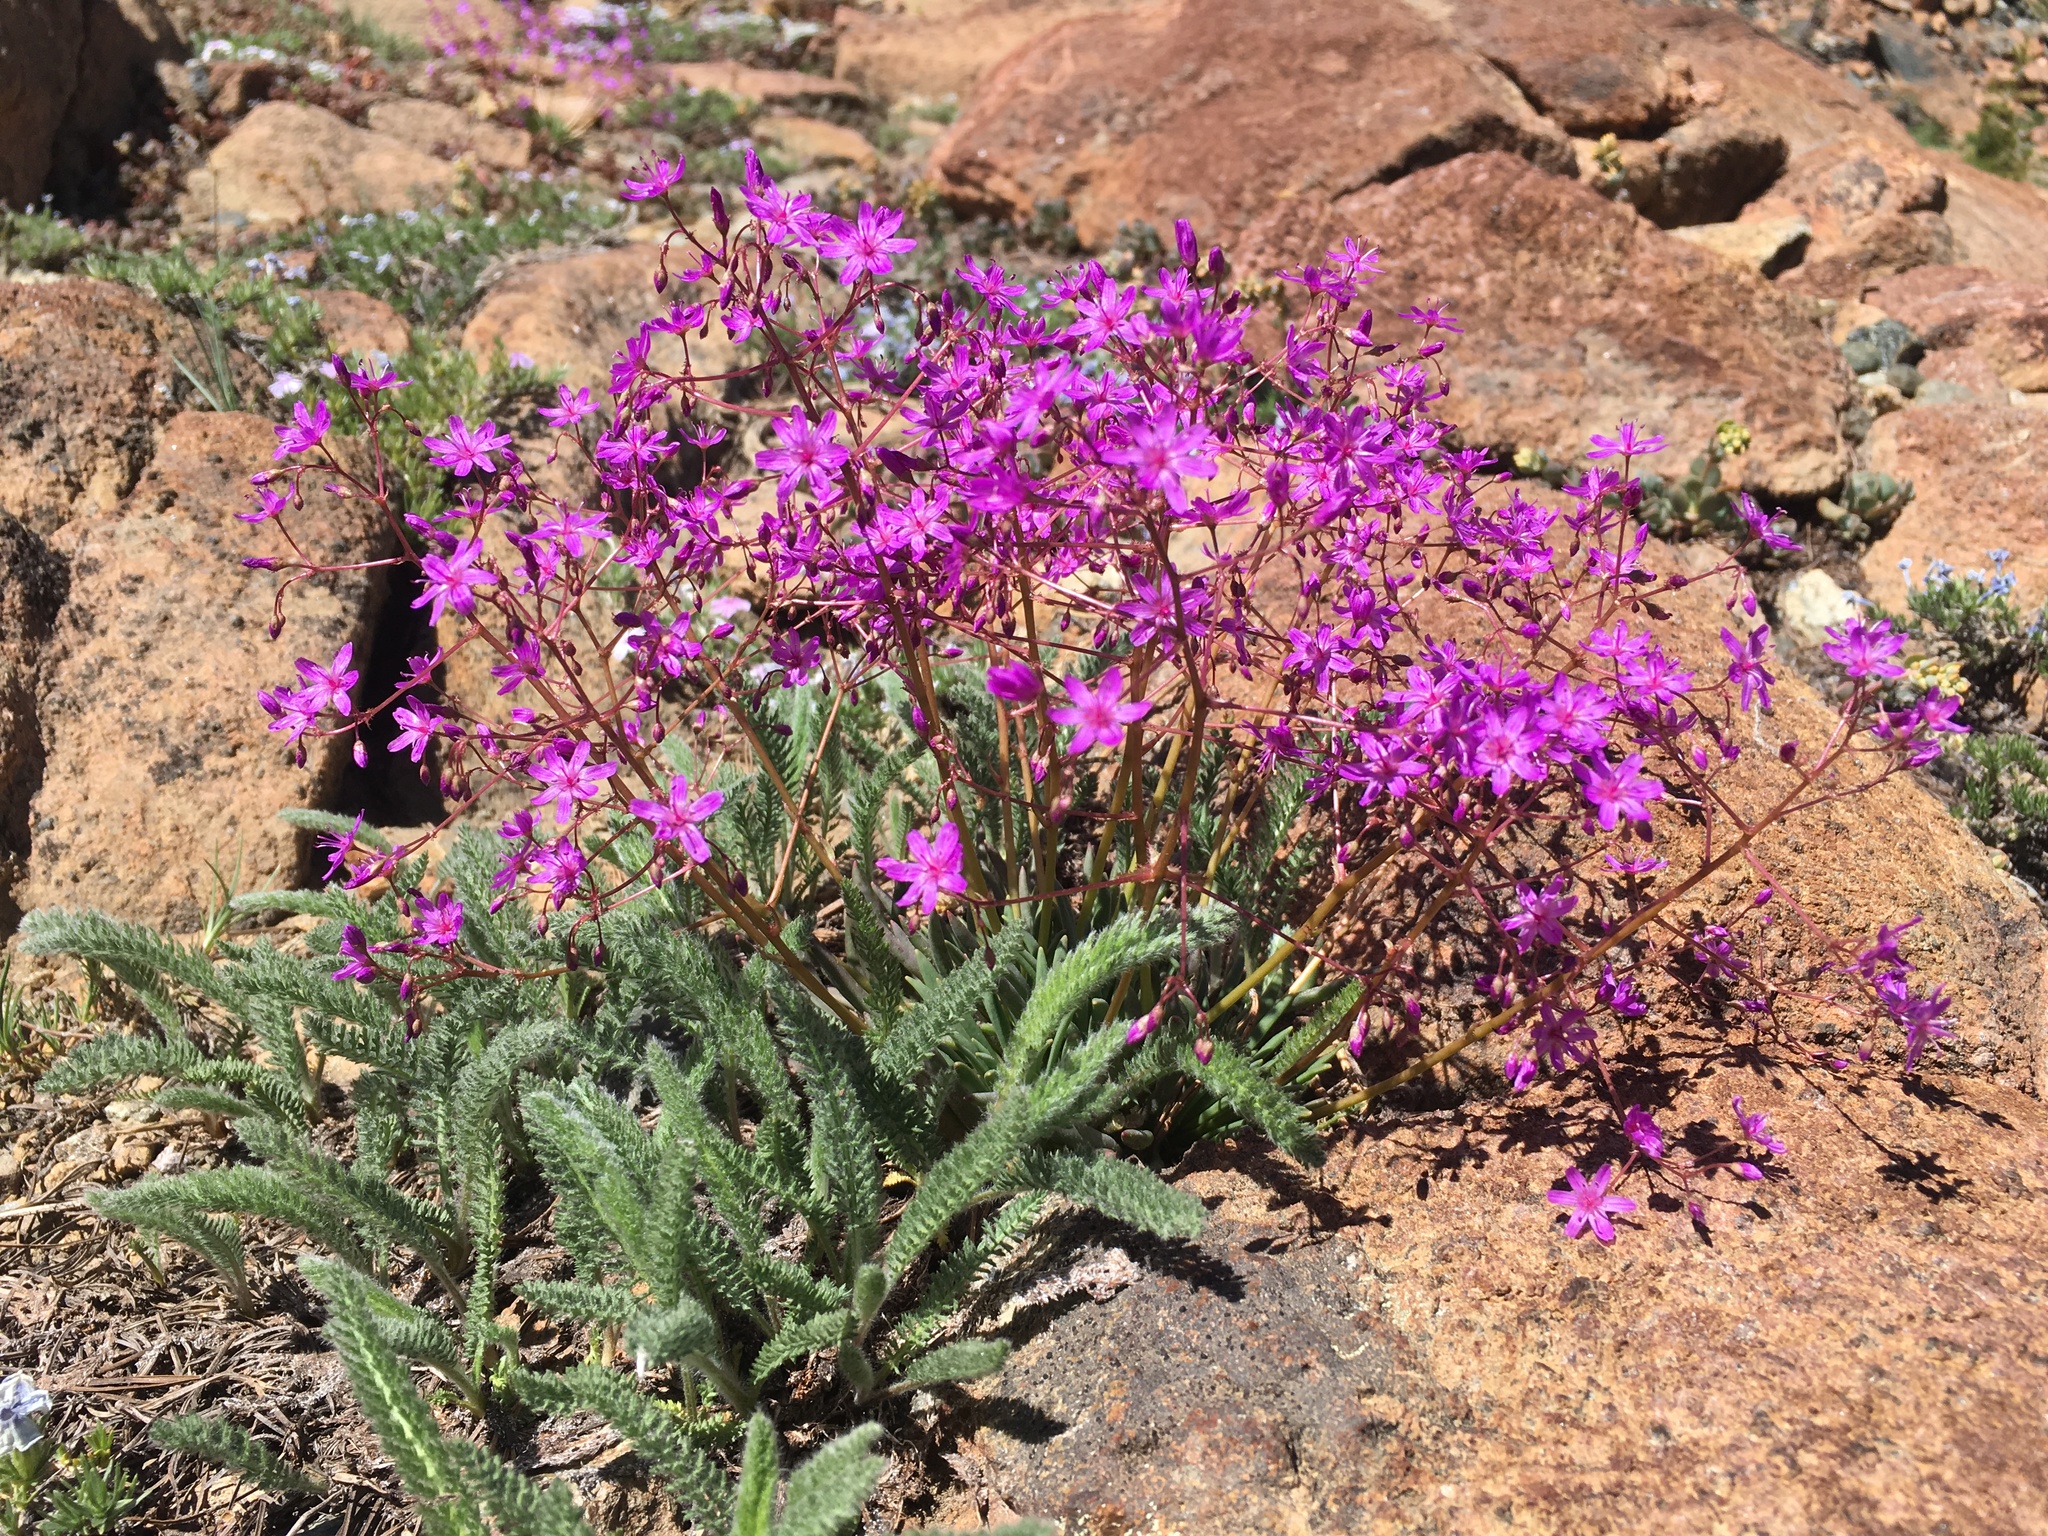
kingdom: Plantae
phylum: Tracheophyta
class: Magnoliopsida
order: Caryophyllales
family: Montiaceae
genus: Lewisia
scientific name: Lewisia leeana
